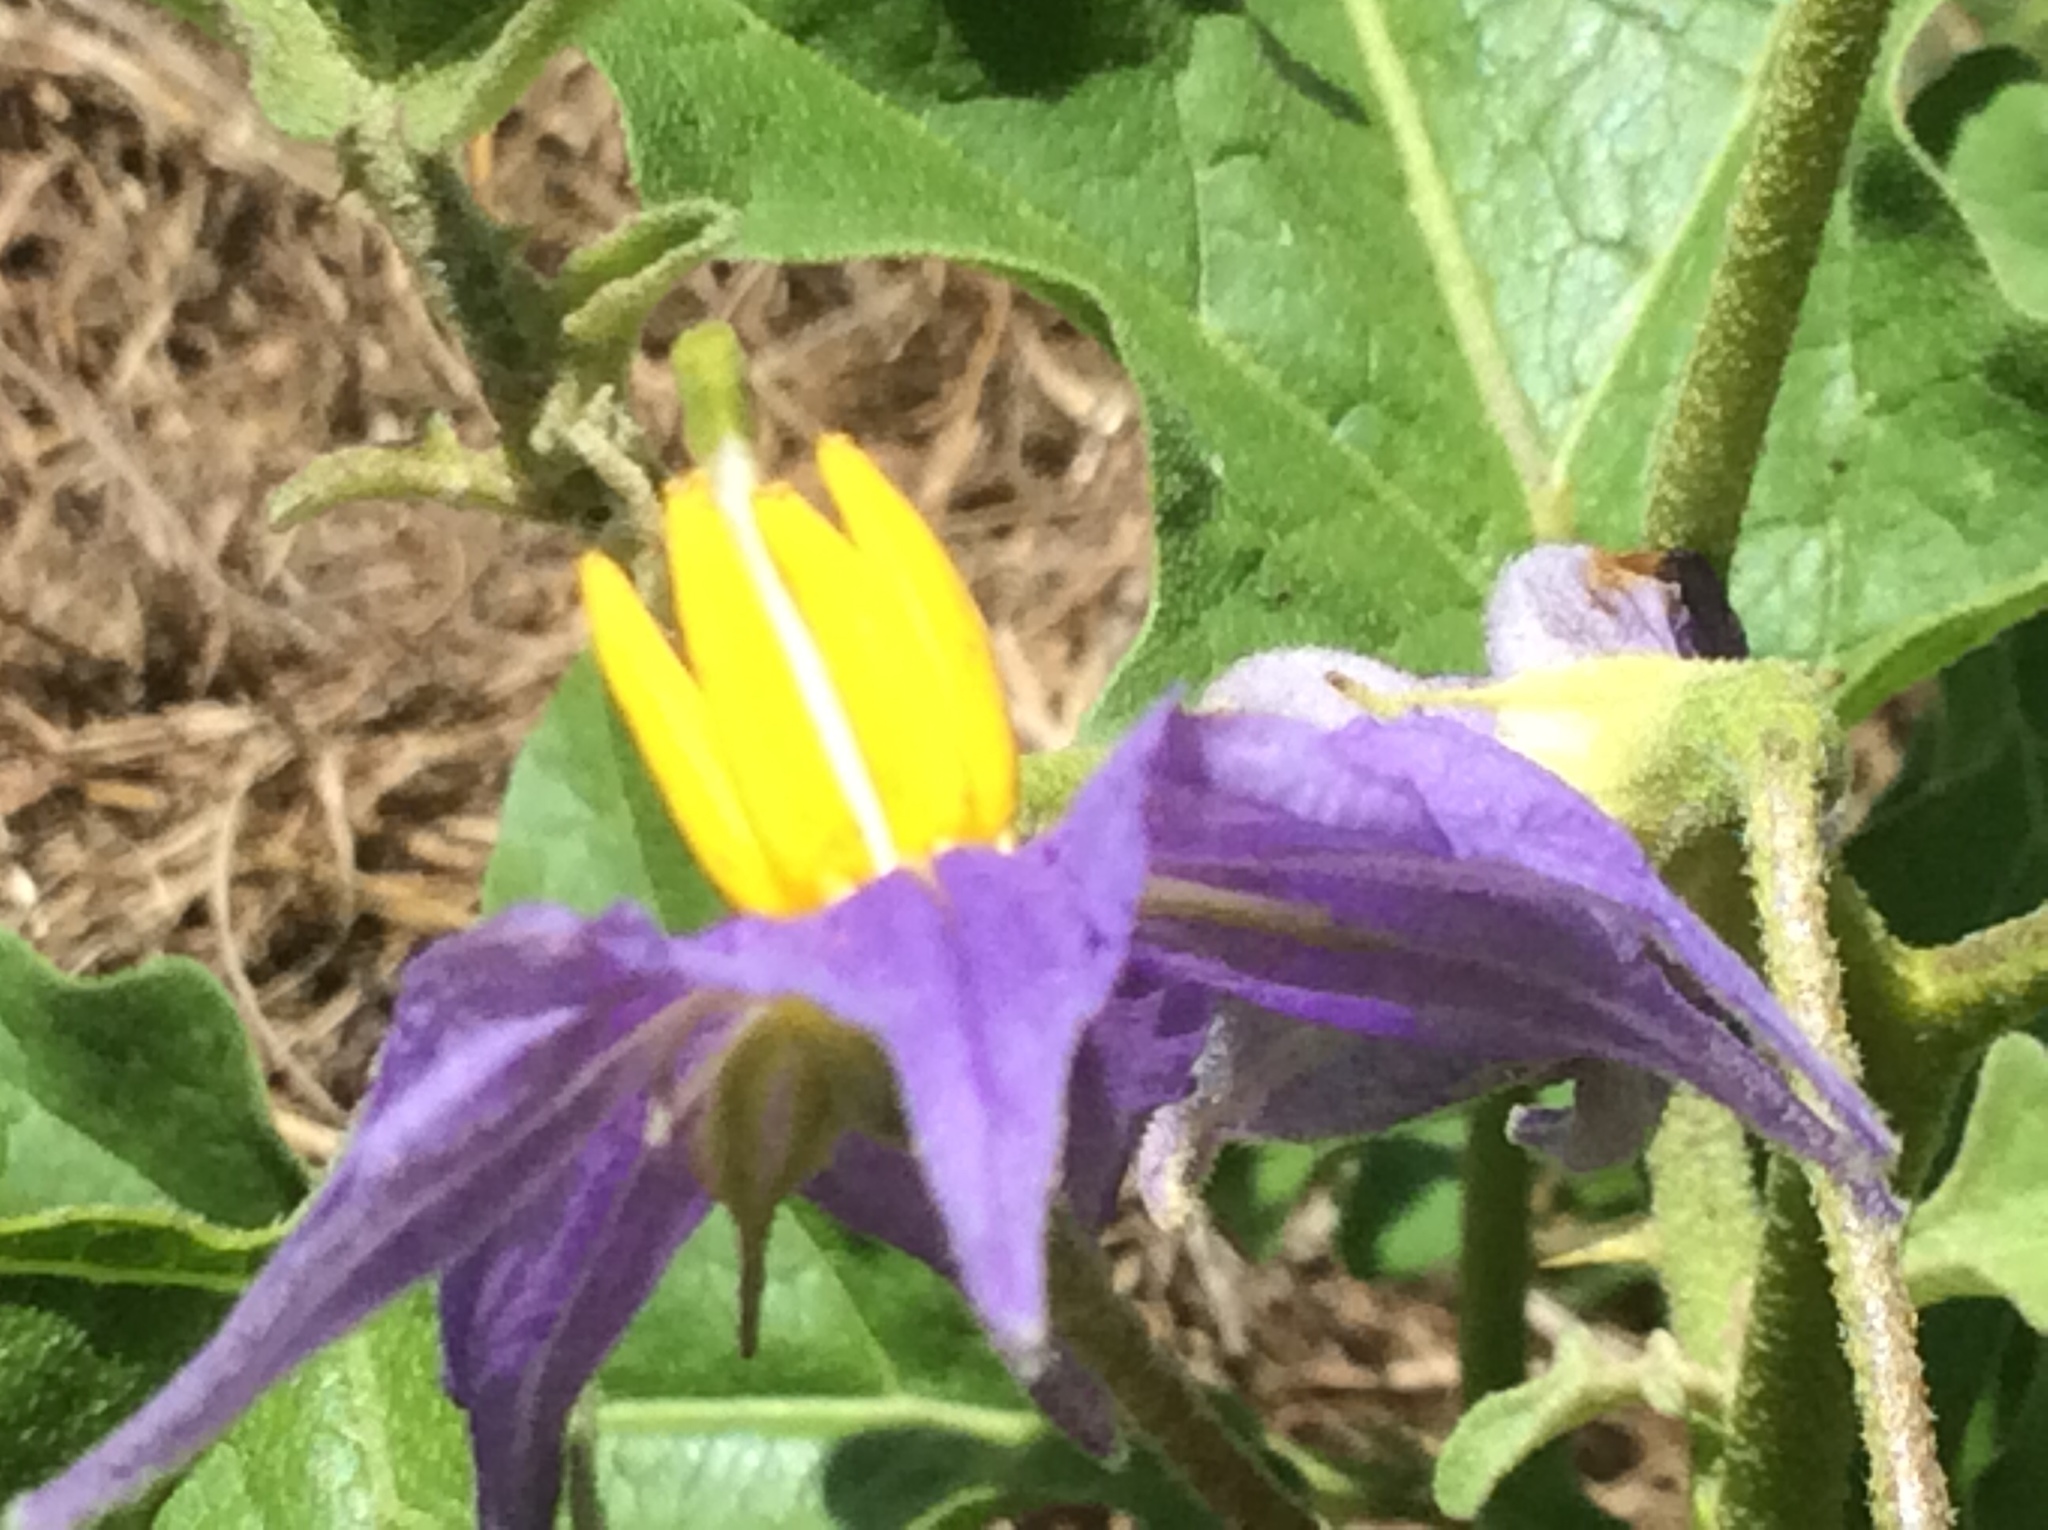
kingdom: Plantae
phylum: Tracheophyta
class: Magnoliopsida
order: Solanales
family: Solanaceae
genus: Solanum
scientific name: Solanum dimidiatum
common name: Carolina horse-nettle
